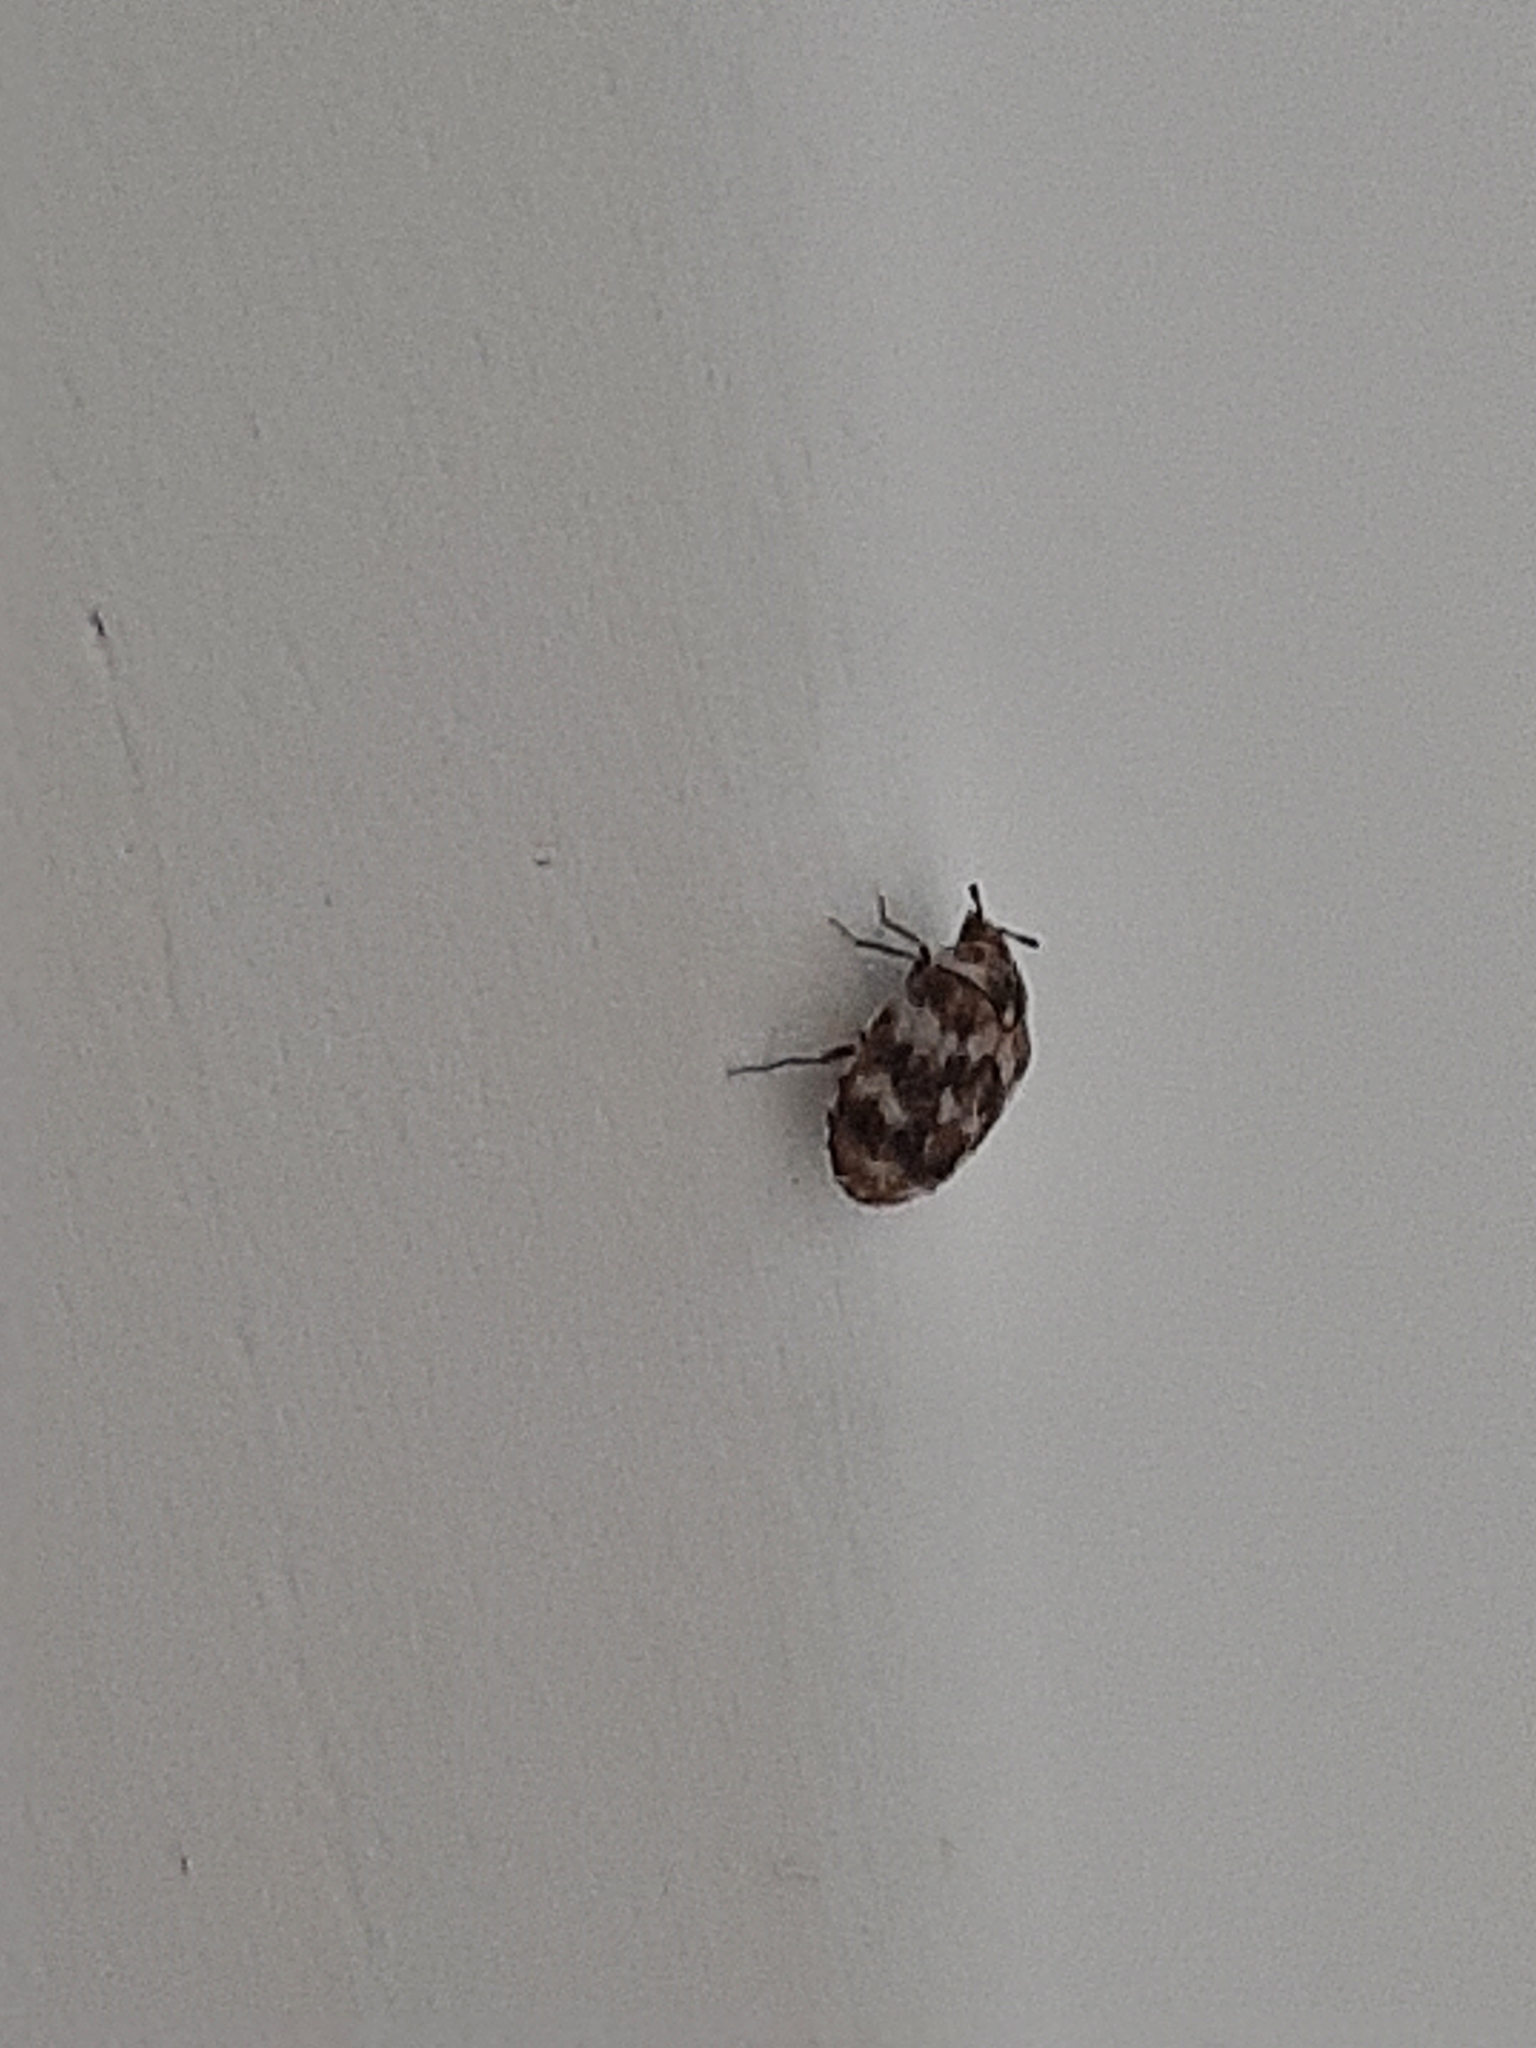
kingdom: Animalia
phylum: Arthropoda
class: Insecta
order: Coleoptera
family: Dermestidae
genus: Anthrenus
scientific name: Anthrenus verbasci
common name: Varied carpet beetle
